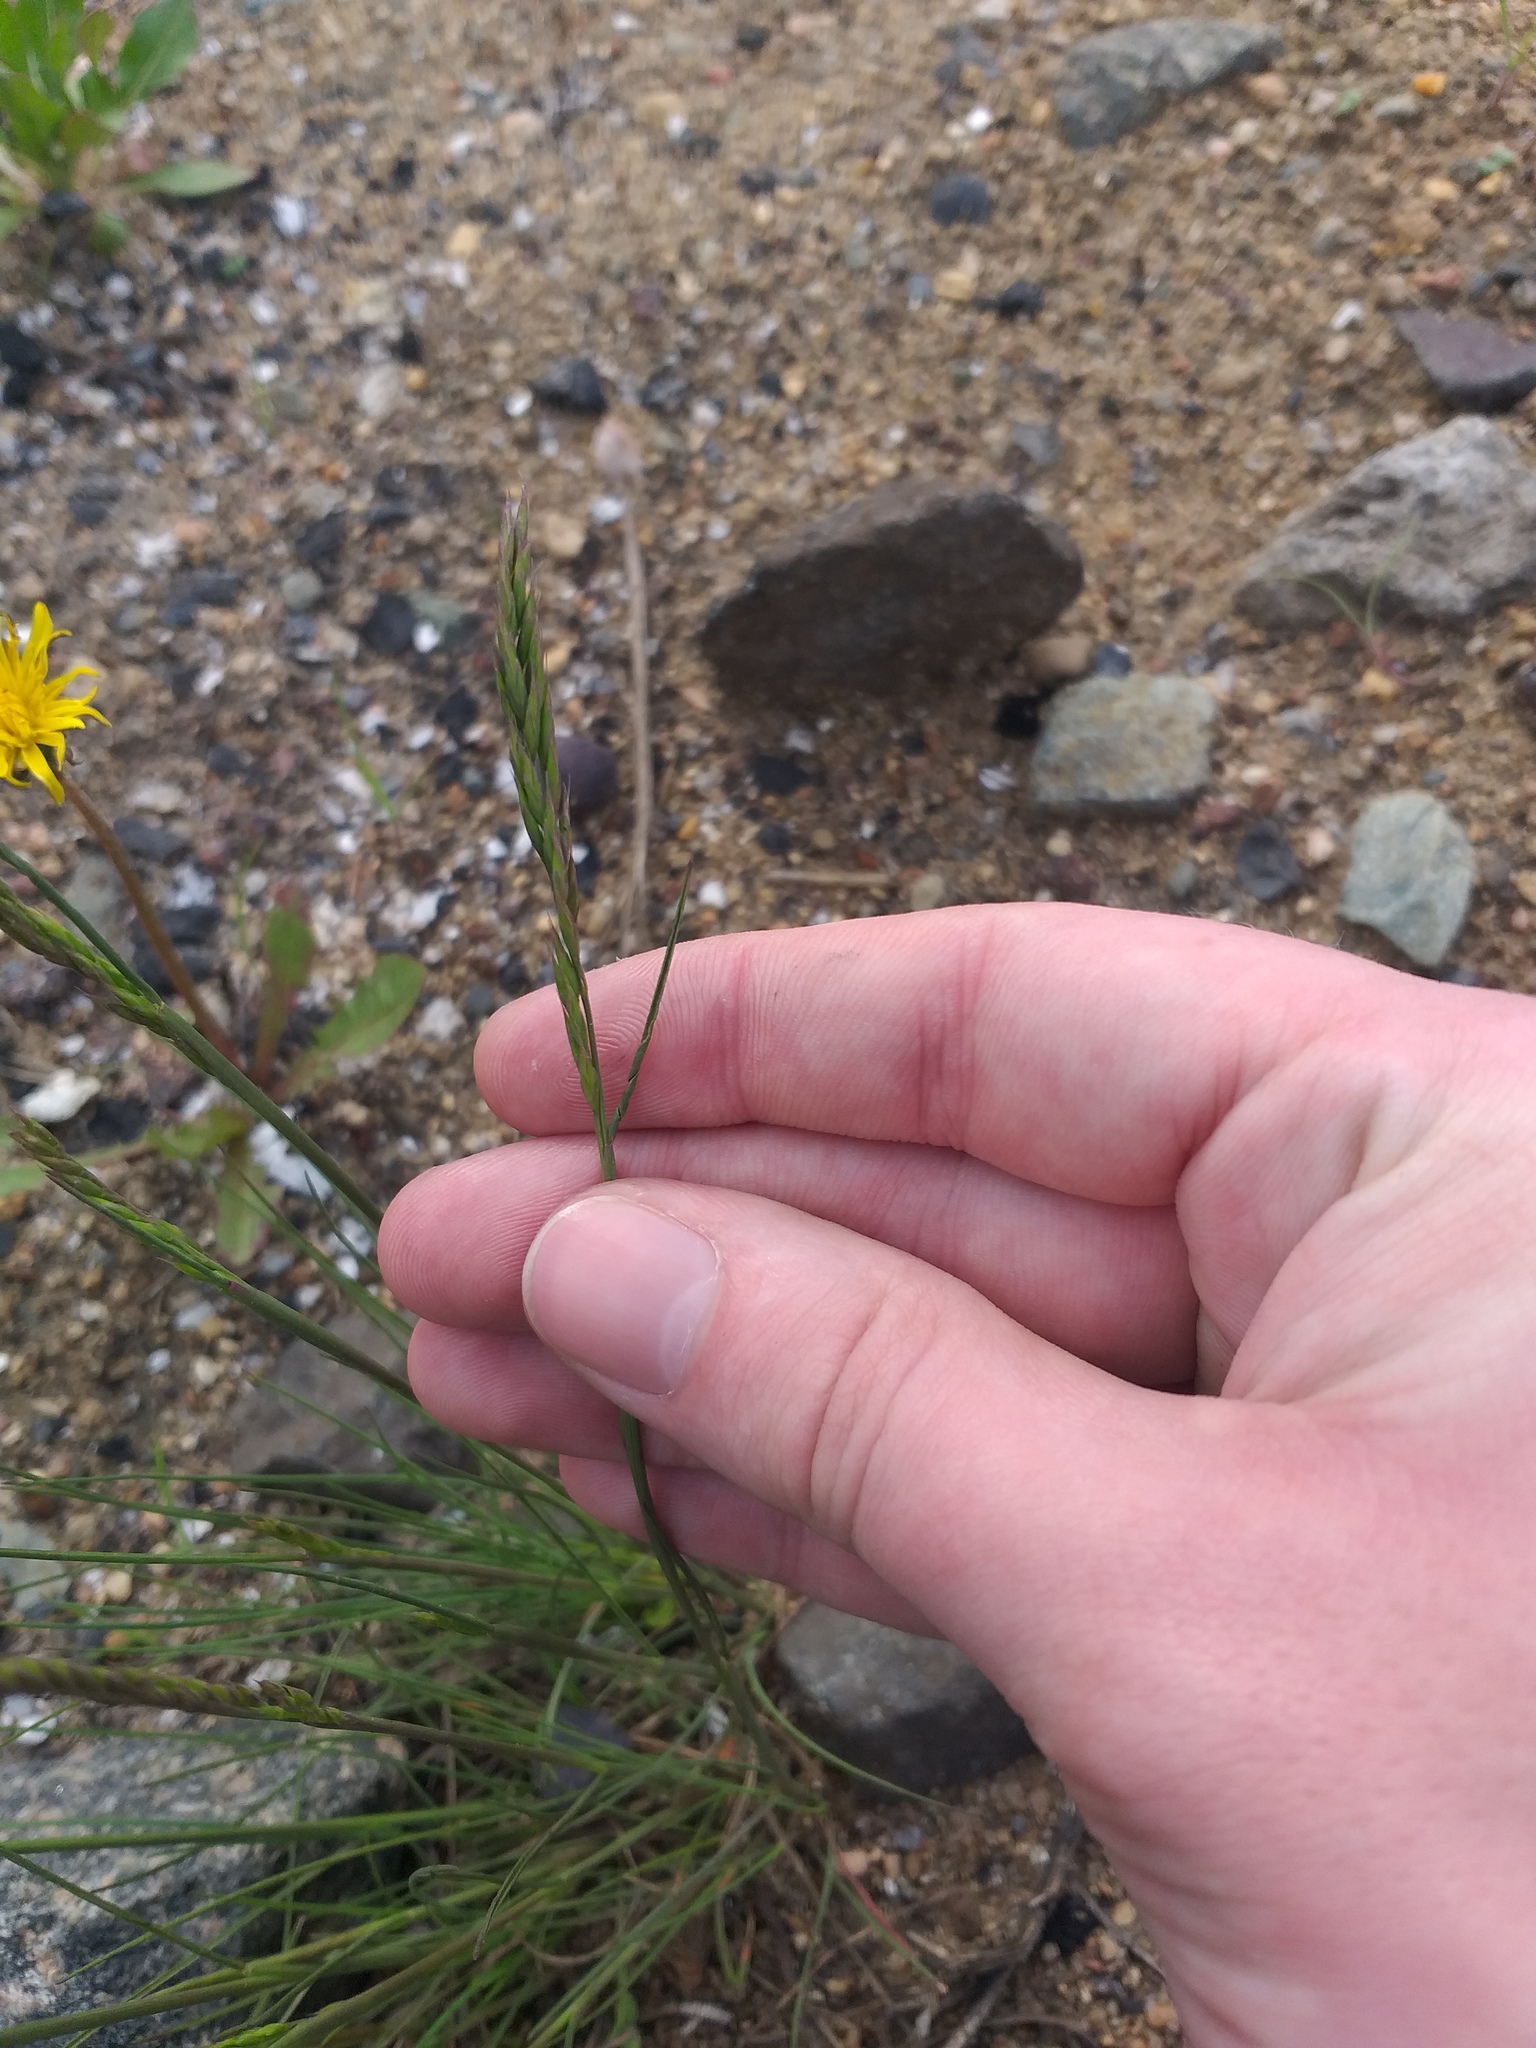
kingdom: Plantae
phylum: Tracheophyta
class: Liliopsida
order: Poales
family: Poaceae
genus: Festuca
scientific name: Festuca trachyphylla
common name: Hard fescue
